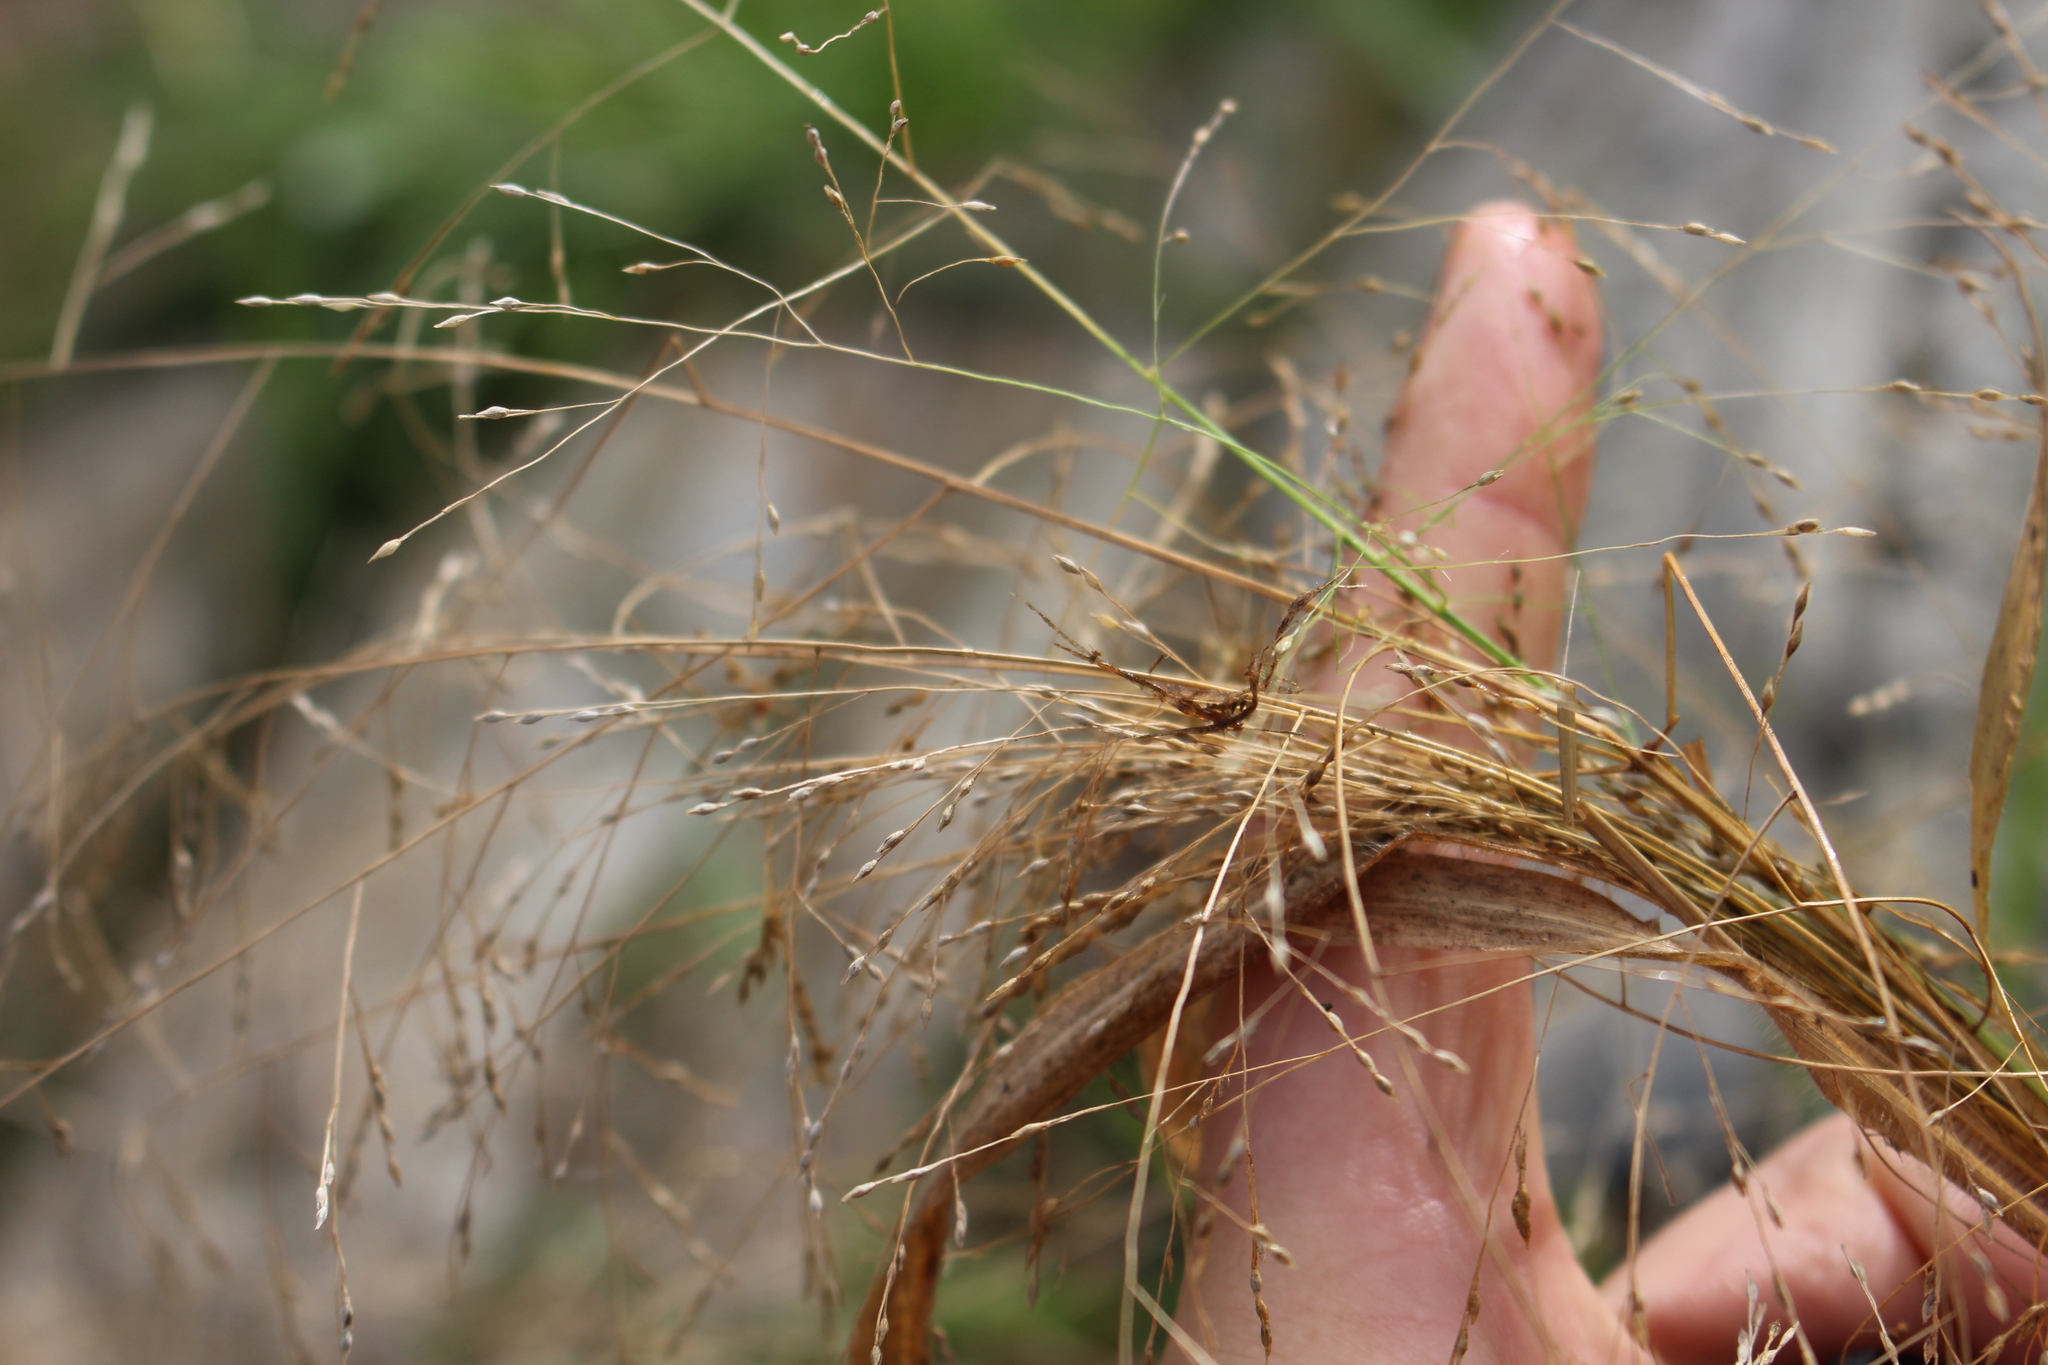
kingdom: Plantae
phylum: Tracheophyta
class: Liliopsida
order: Poales
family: Poaceae
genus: Panicum
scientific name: Panicum capillare
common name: Witch-grass
